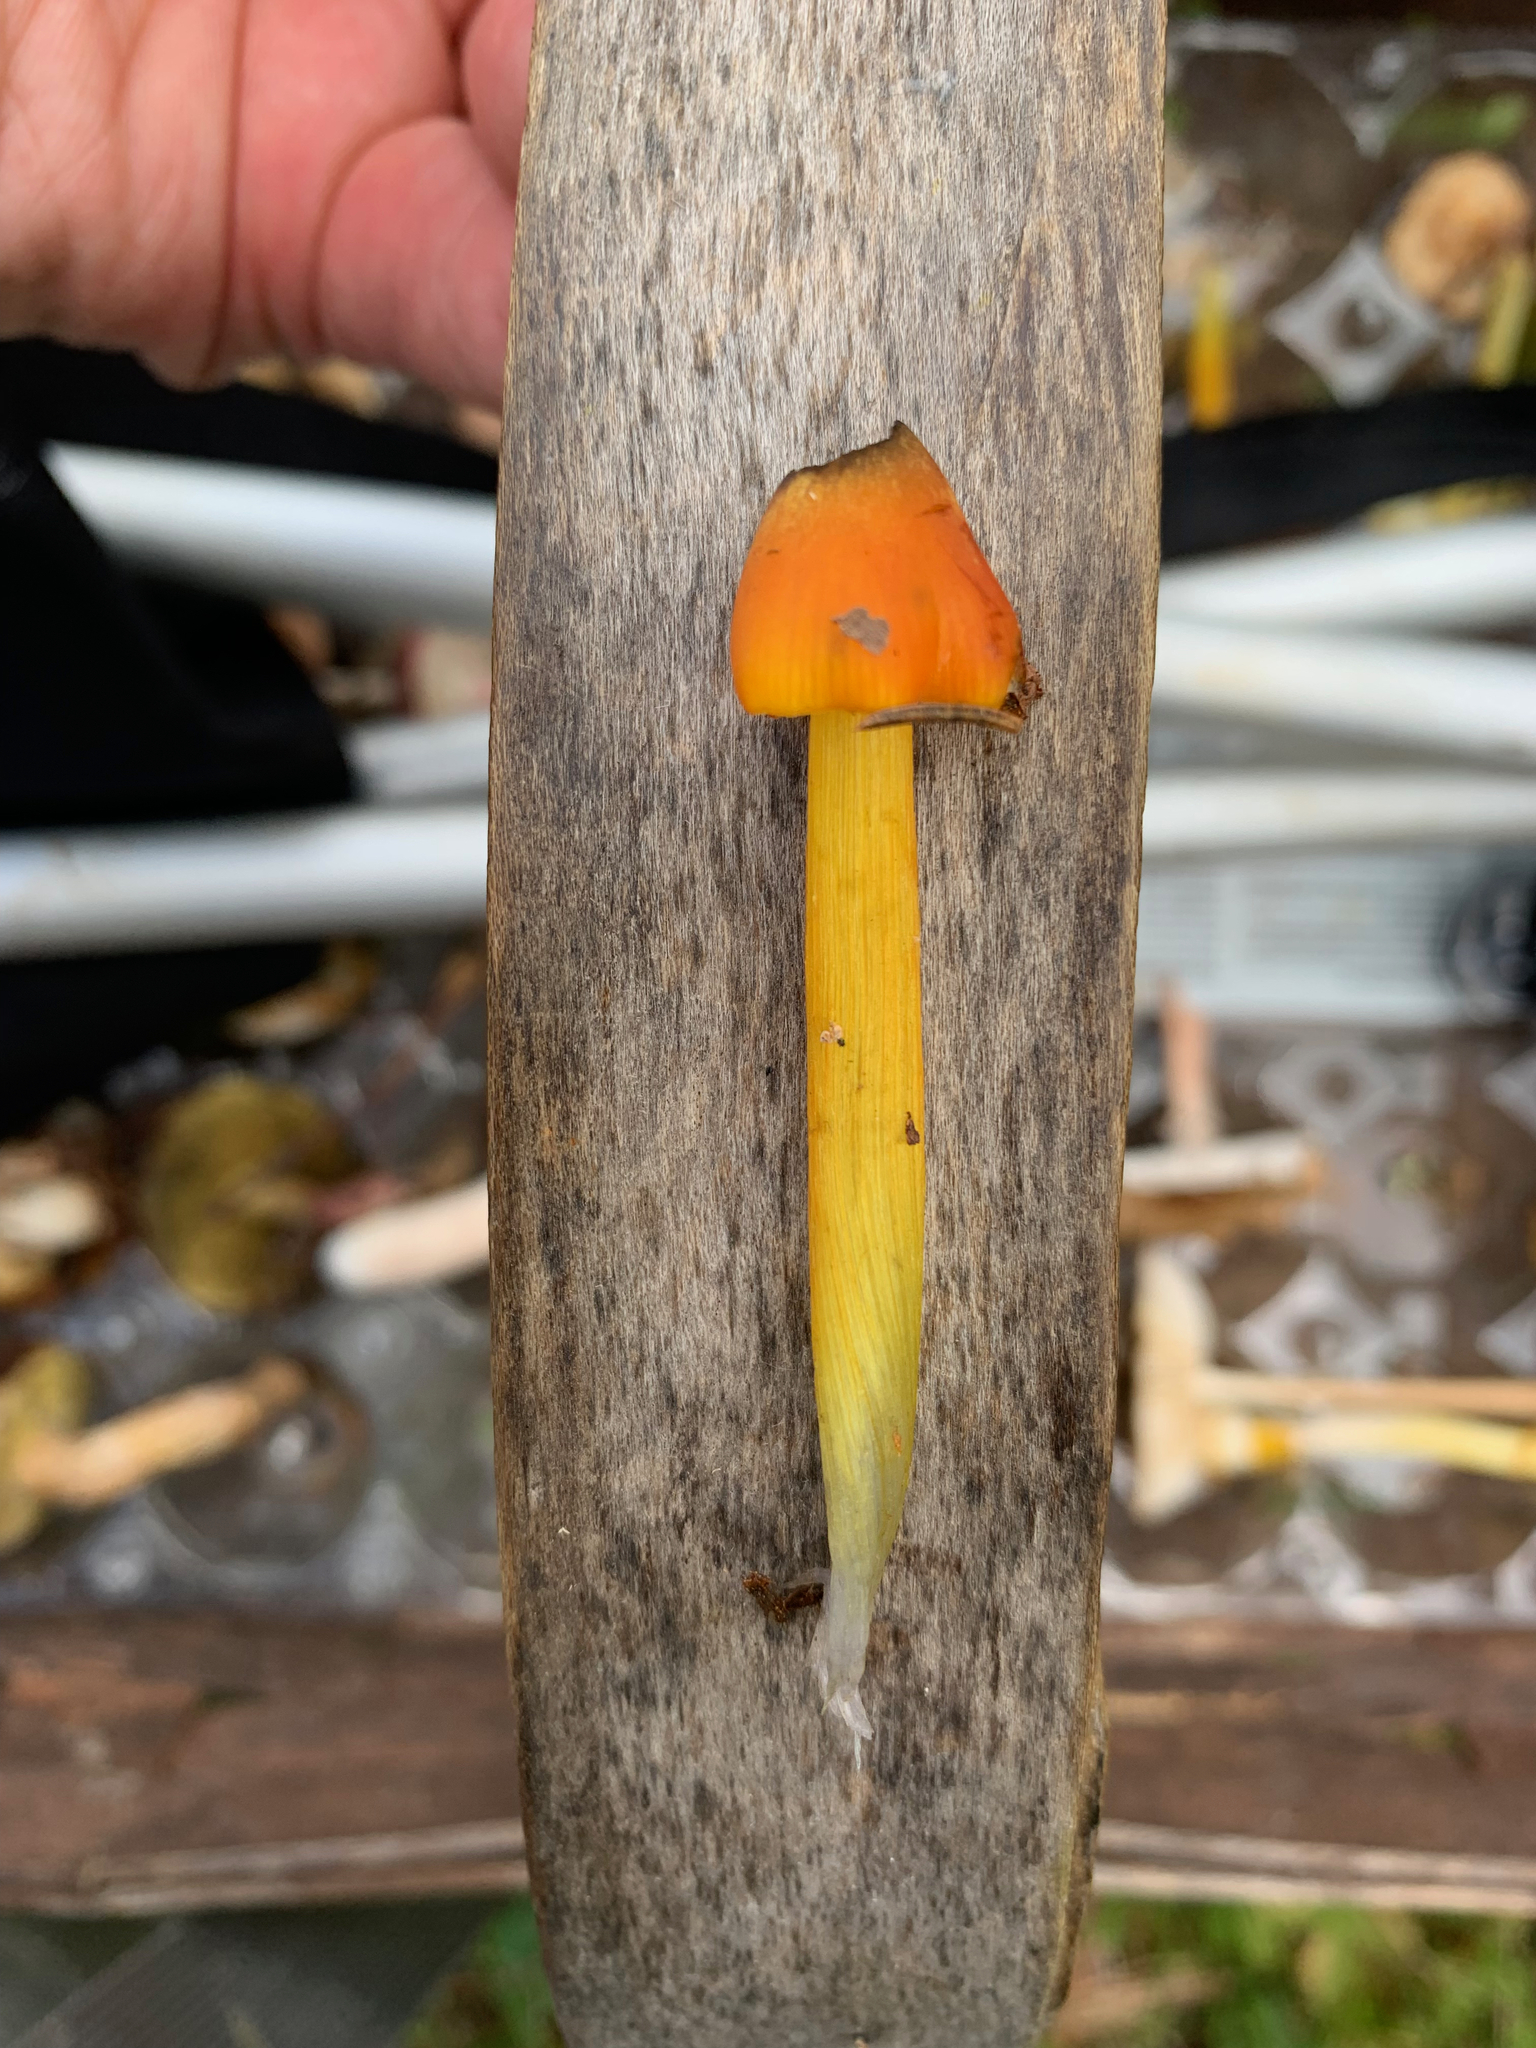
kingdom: Fungi
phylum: Basidiomycota
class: Agaricomycetes
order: Agaricales
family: Hygrophoraceae
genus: Hygrocybe
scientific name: Hygrocybe conica
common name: Blackening wax-cap
